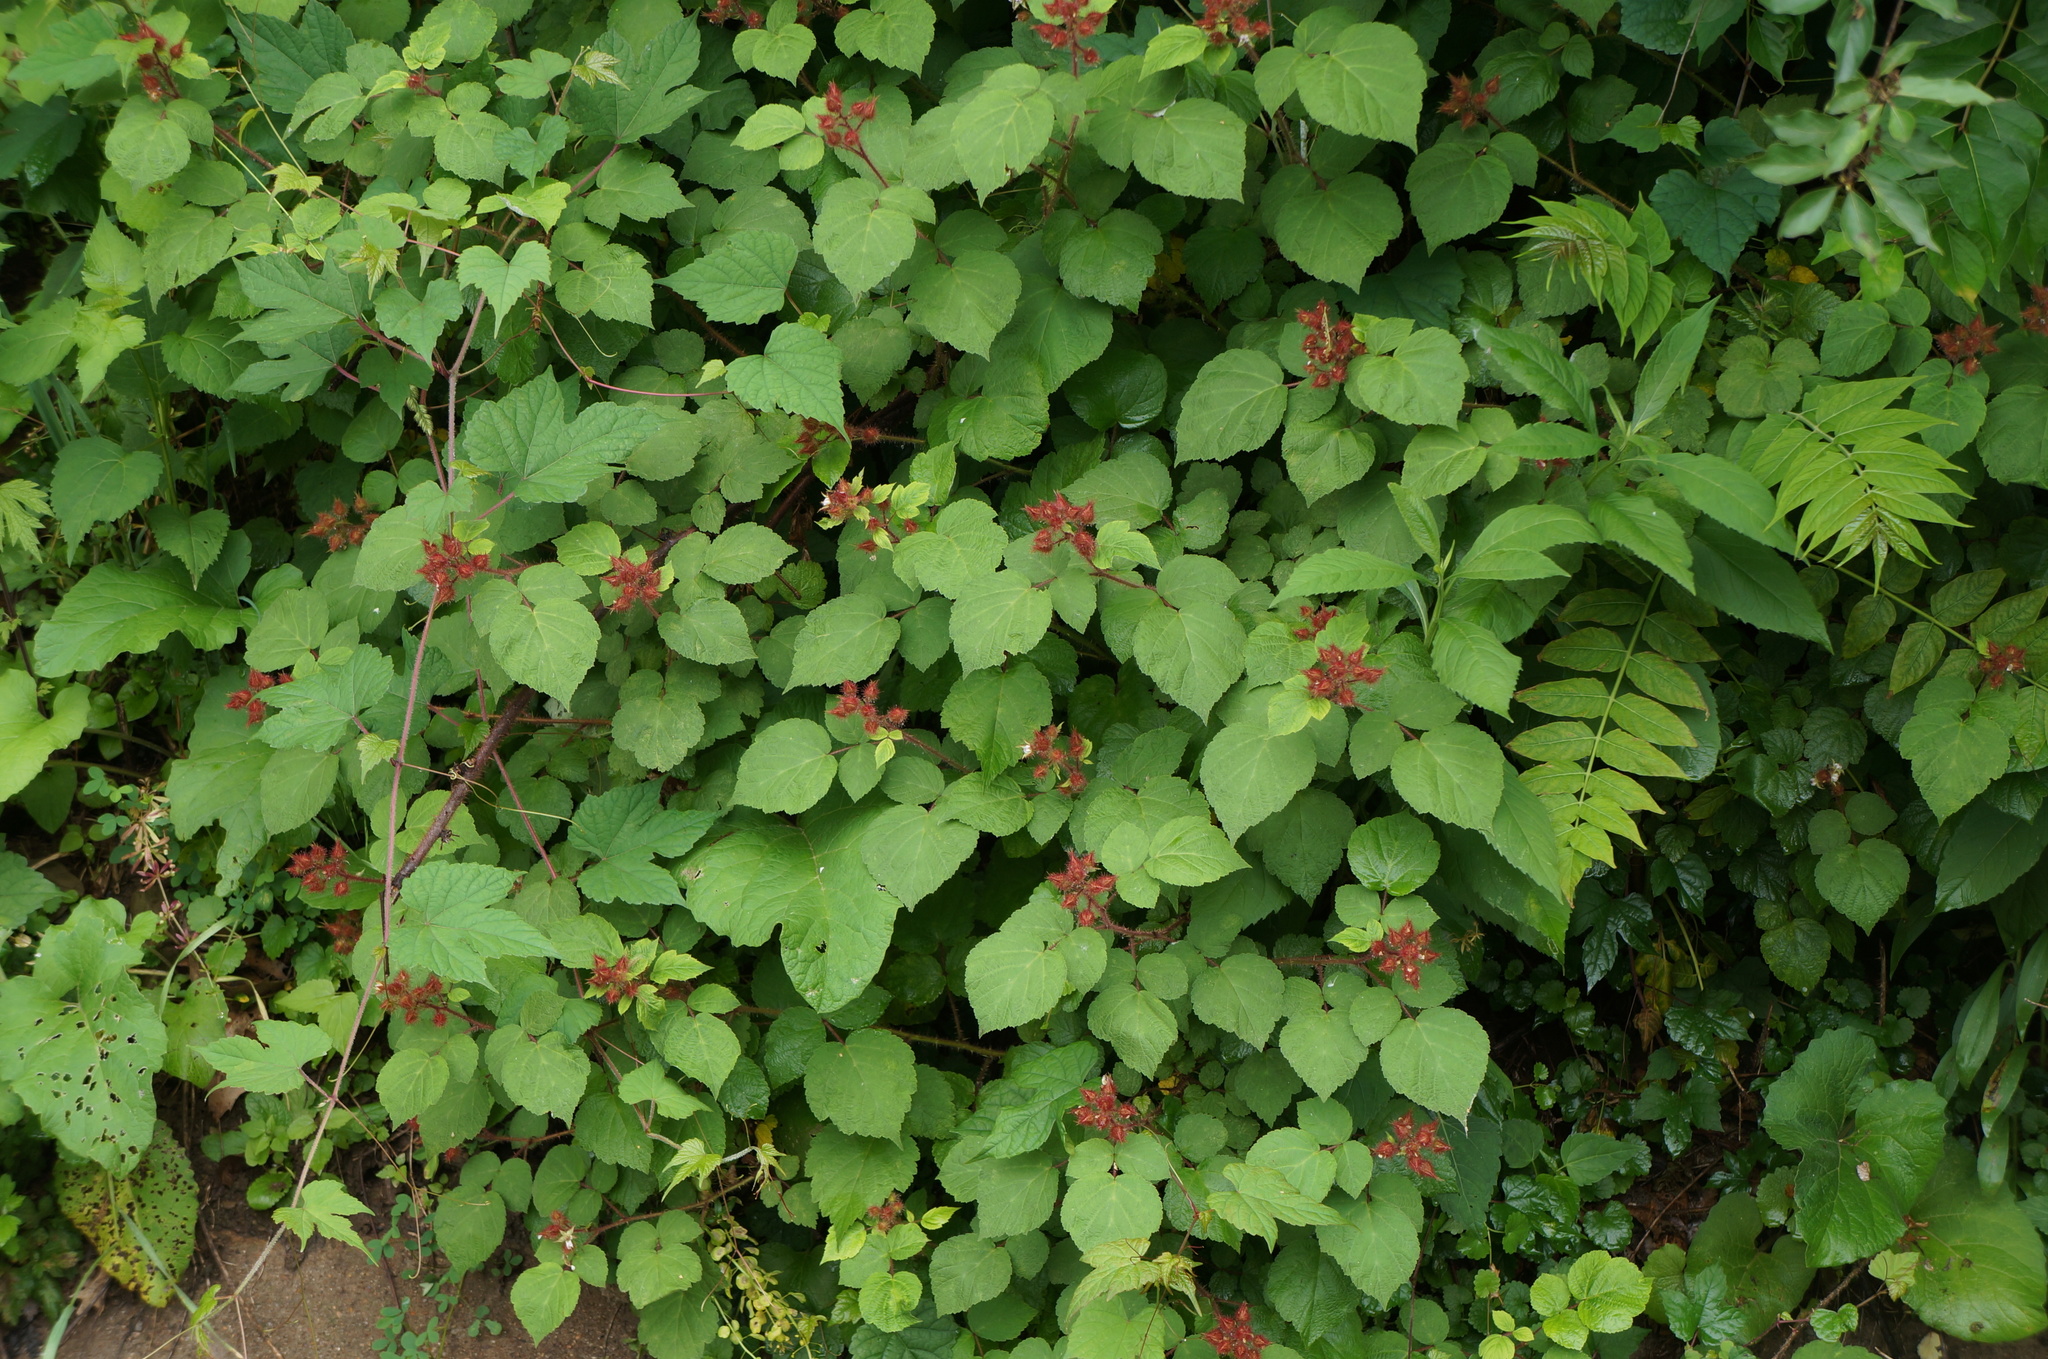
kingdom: Plantae
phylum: Tracheophyta
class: Magnoliopsida
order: Rosales
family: Rosaceae
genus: Rubus
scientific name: Rubus phoenicolasius
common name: Japanese wineberry
